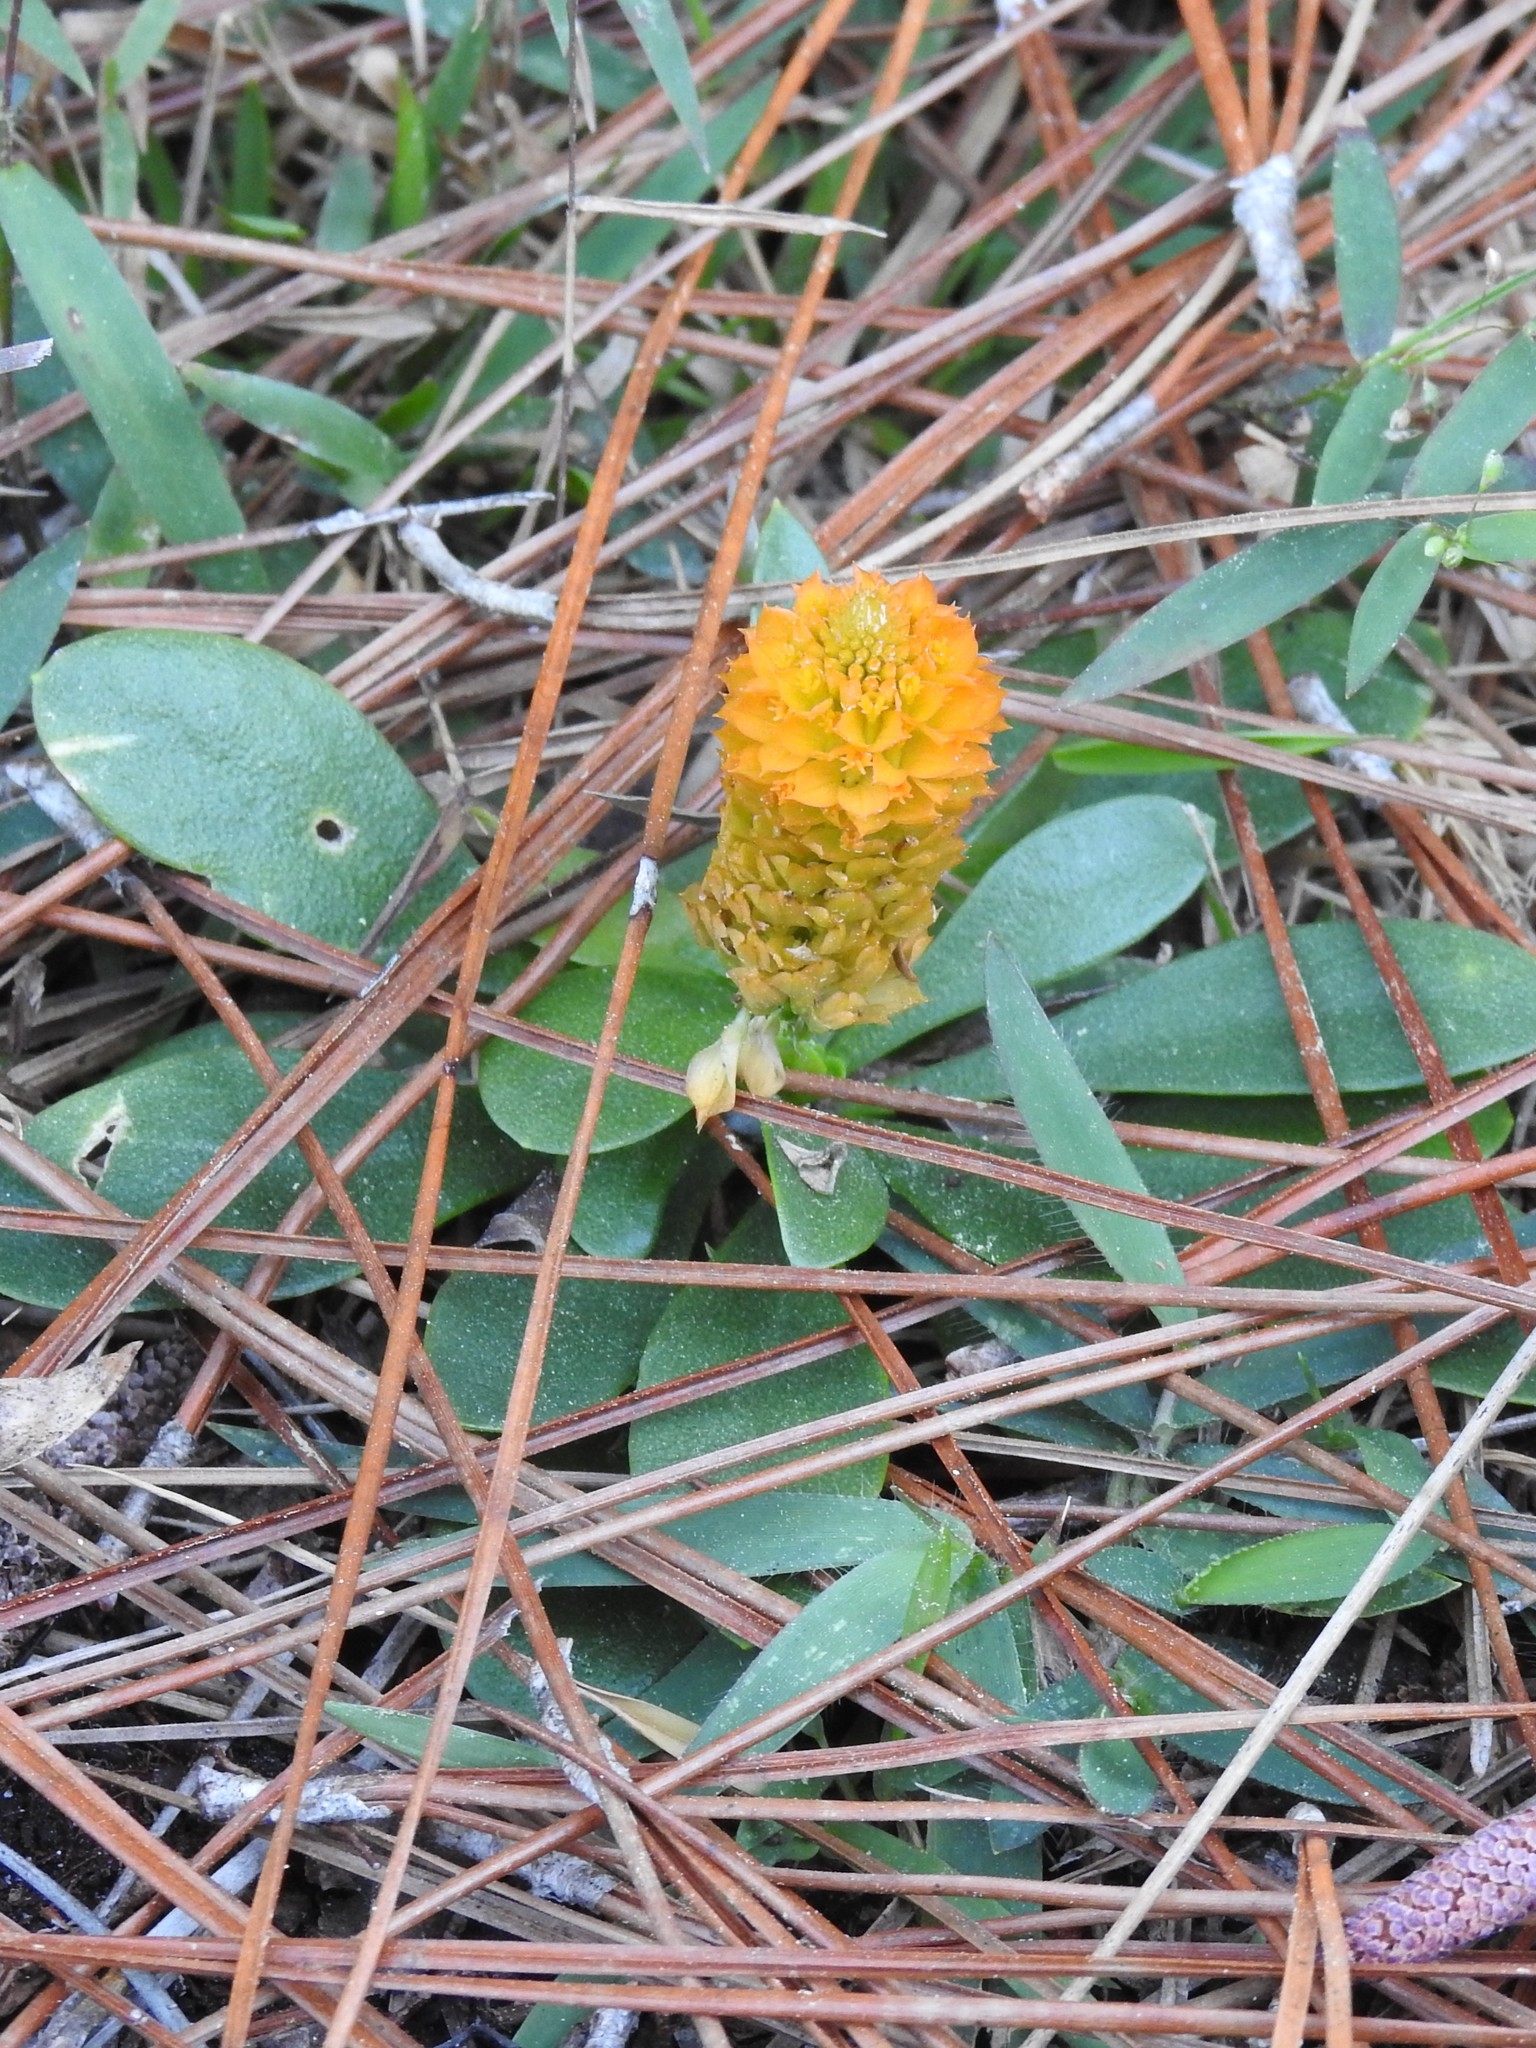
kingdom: Plantae
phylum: Tracheophyta
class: Magnoliopsida
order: Fabales
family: Polygalaceae
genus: Polygala
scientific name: Polygala lutea
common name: Orange milkwort
